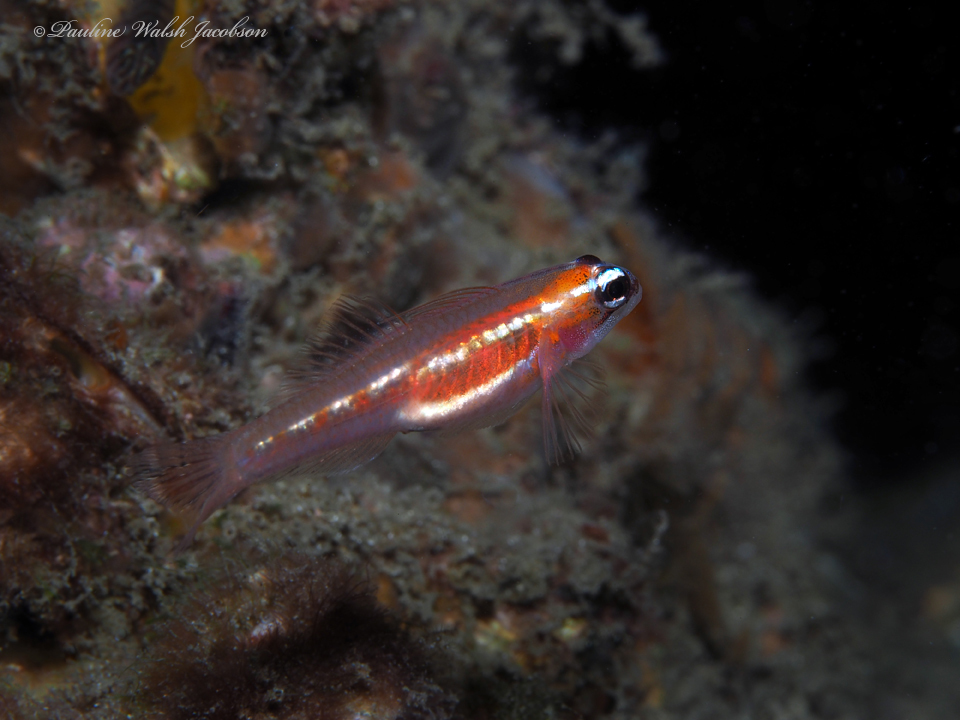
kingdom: Animalia
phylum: Chordata
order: Perciformes
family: Gobiidae
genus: Coryphopterus
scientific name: Coryphopterus hyalinus
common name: Glass goby
